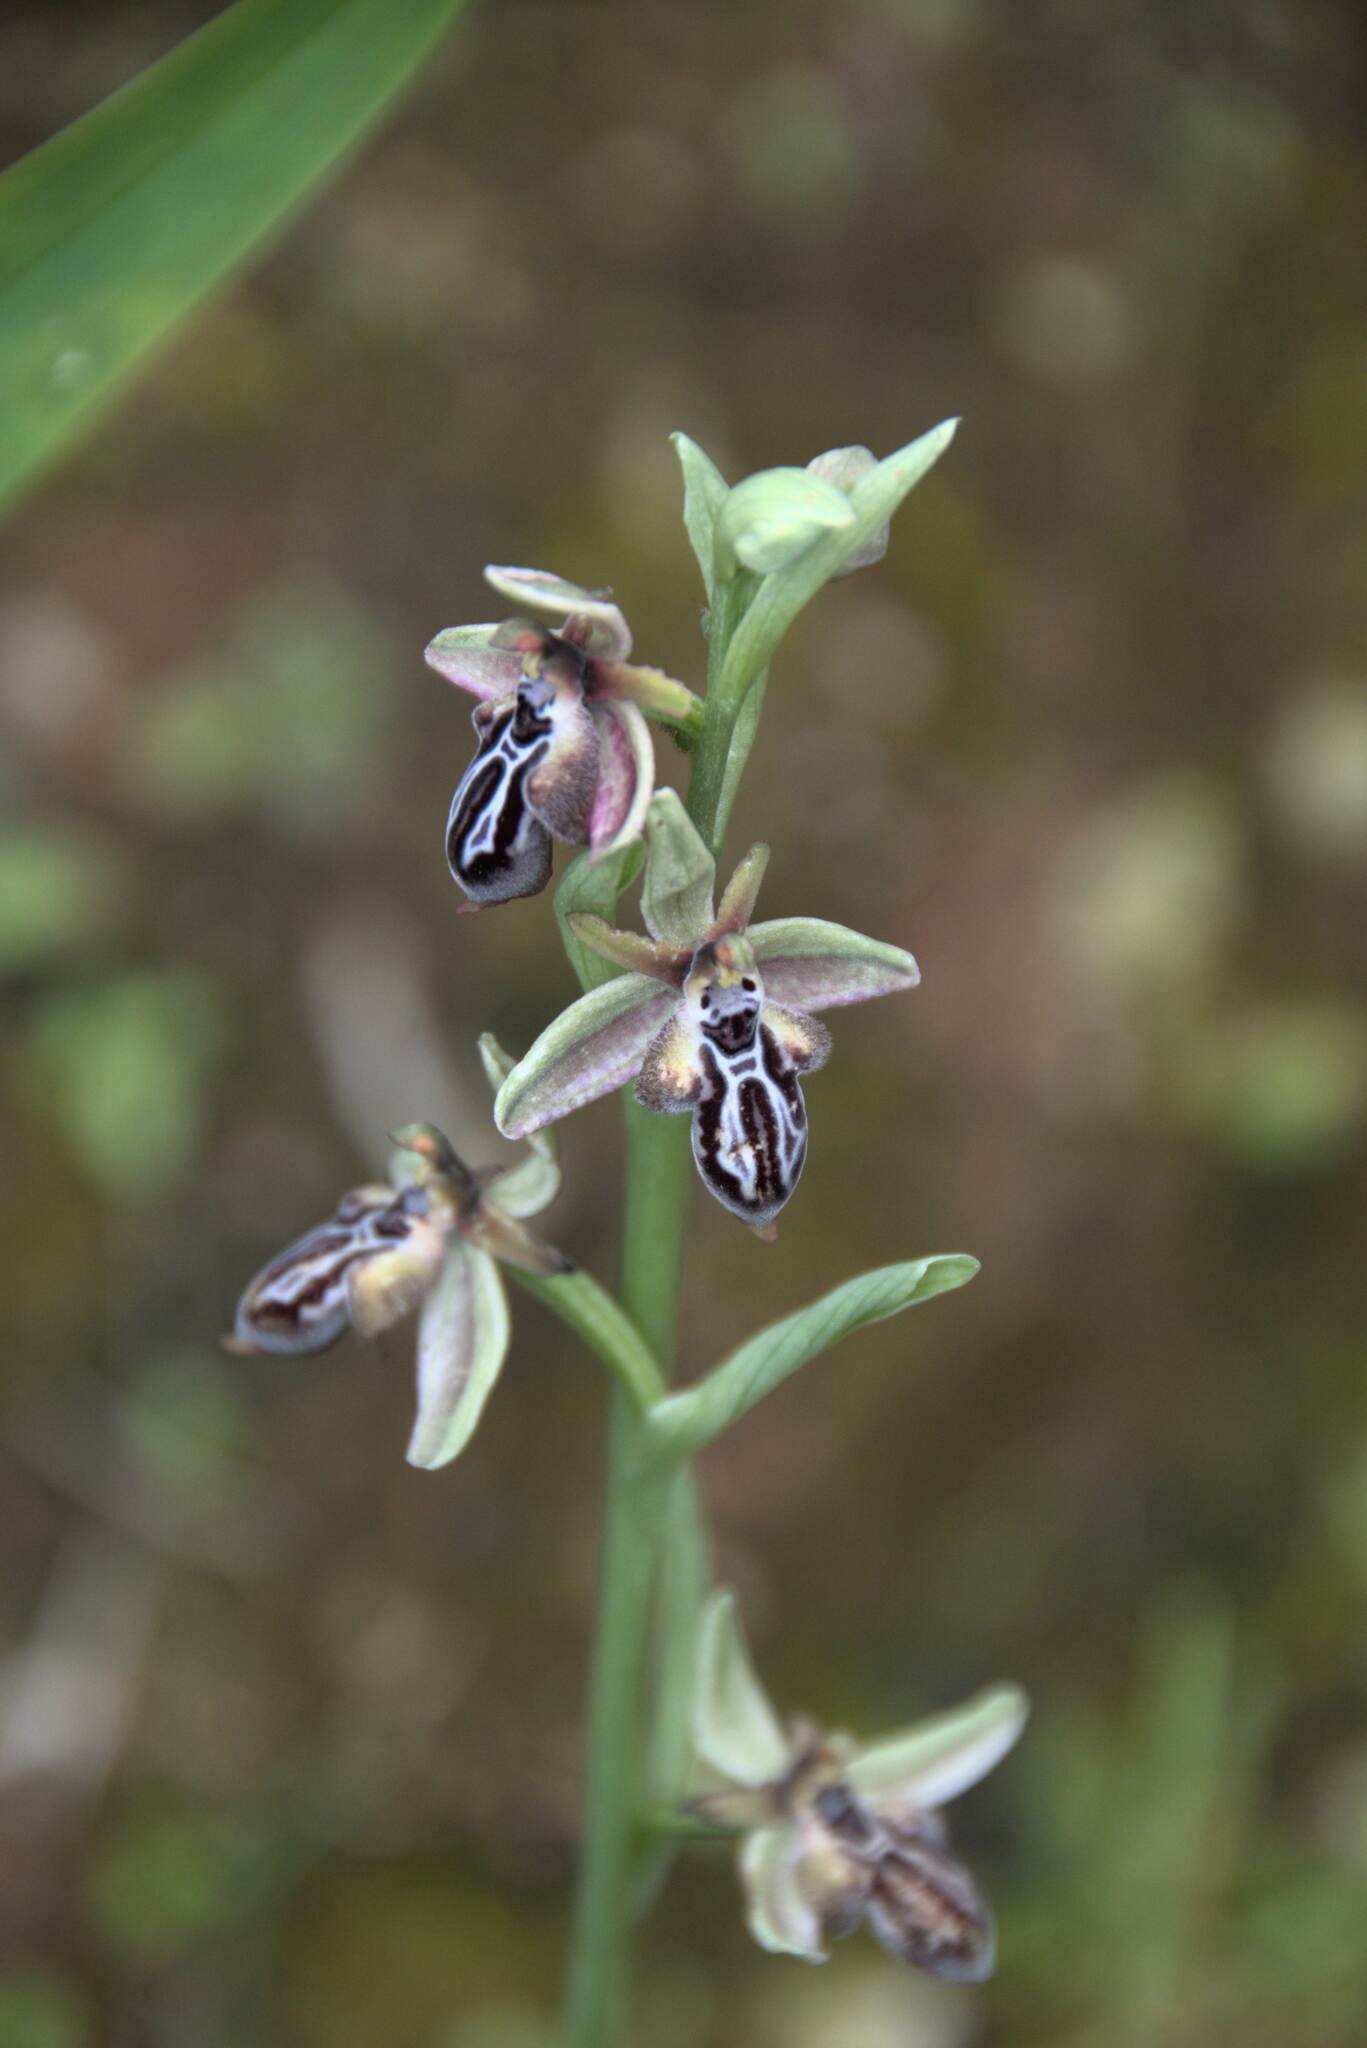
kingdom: Plantae
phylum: Tracheophyta
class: Liliopsida
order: Asparagales
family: Orchidaceae
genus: Ophrys
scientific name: Ophrys cretica
